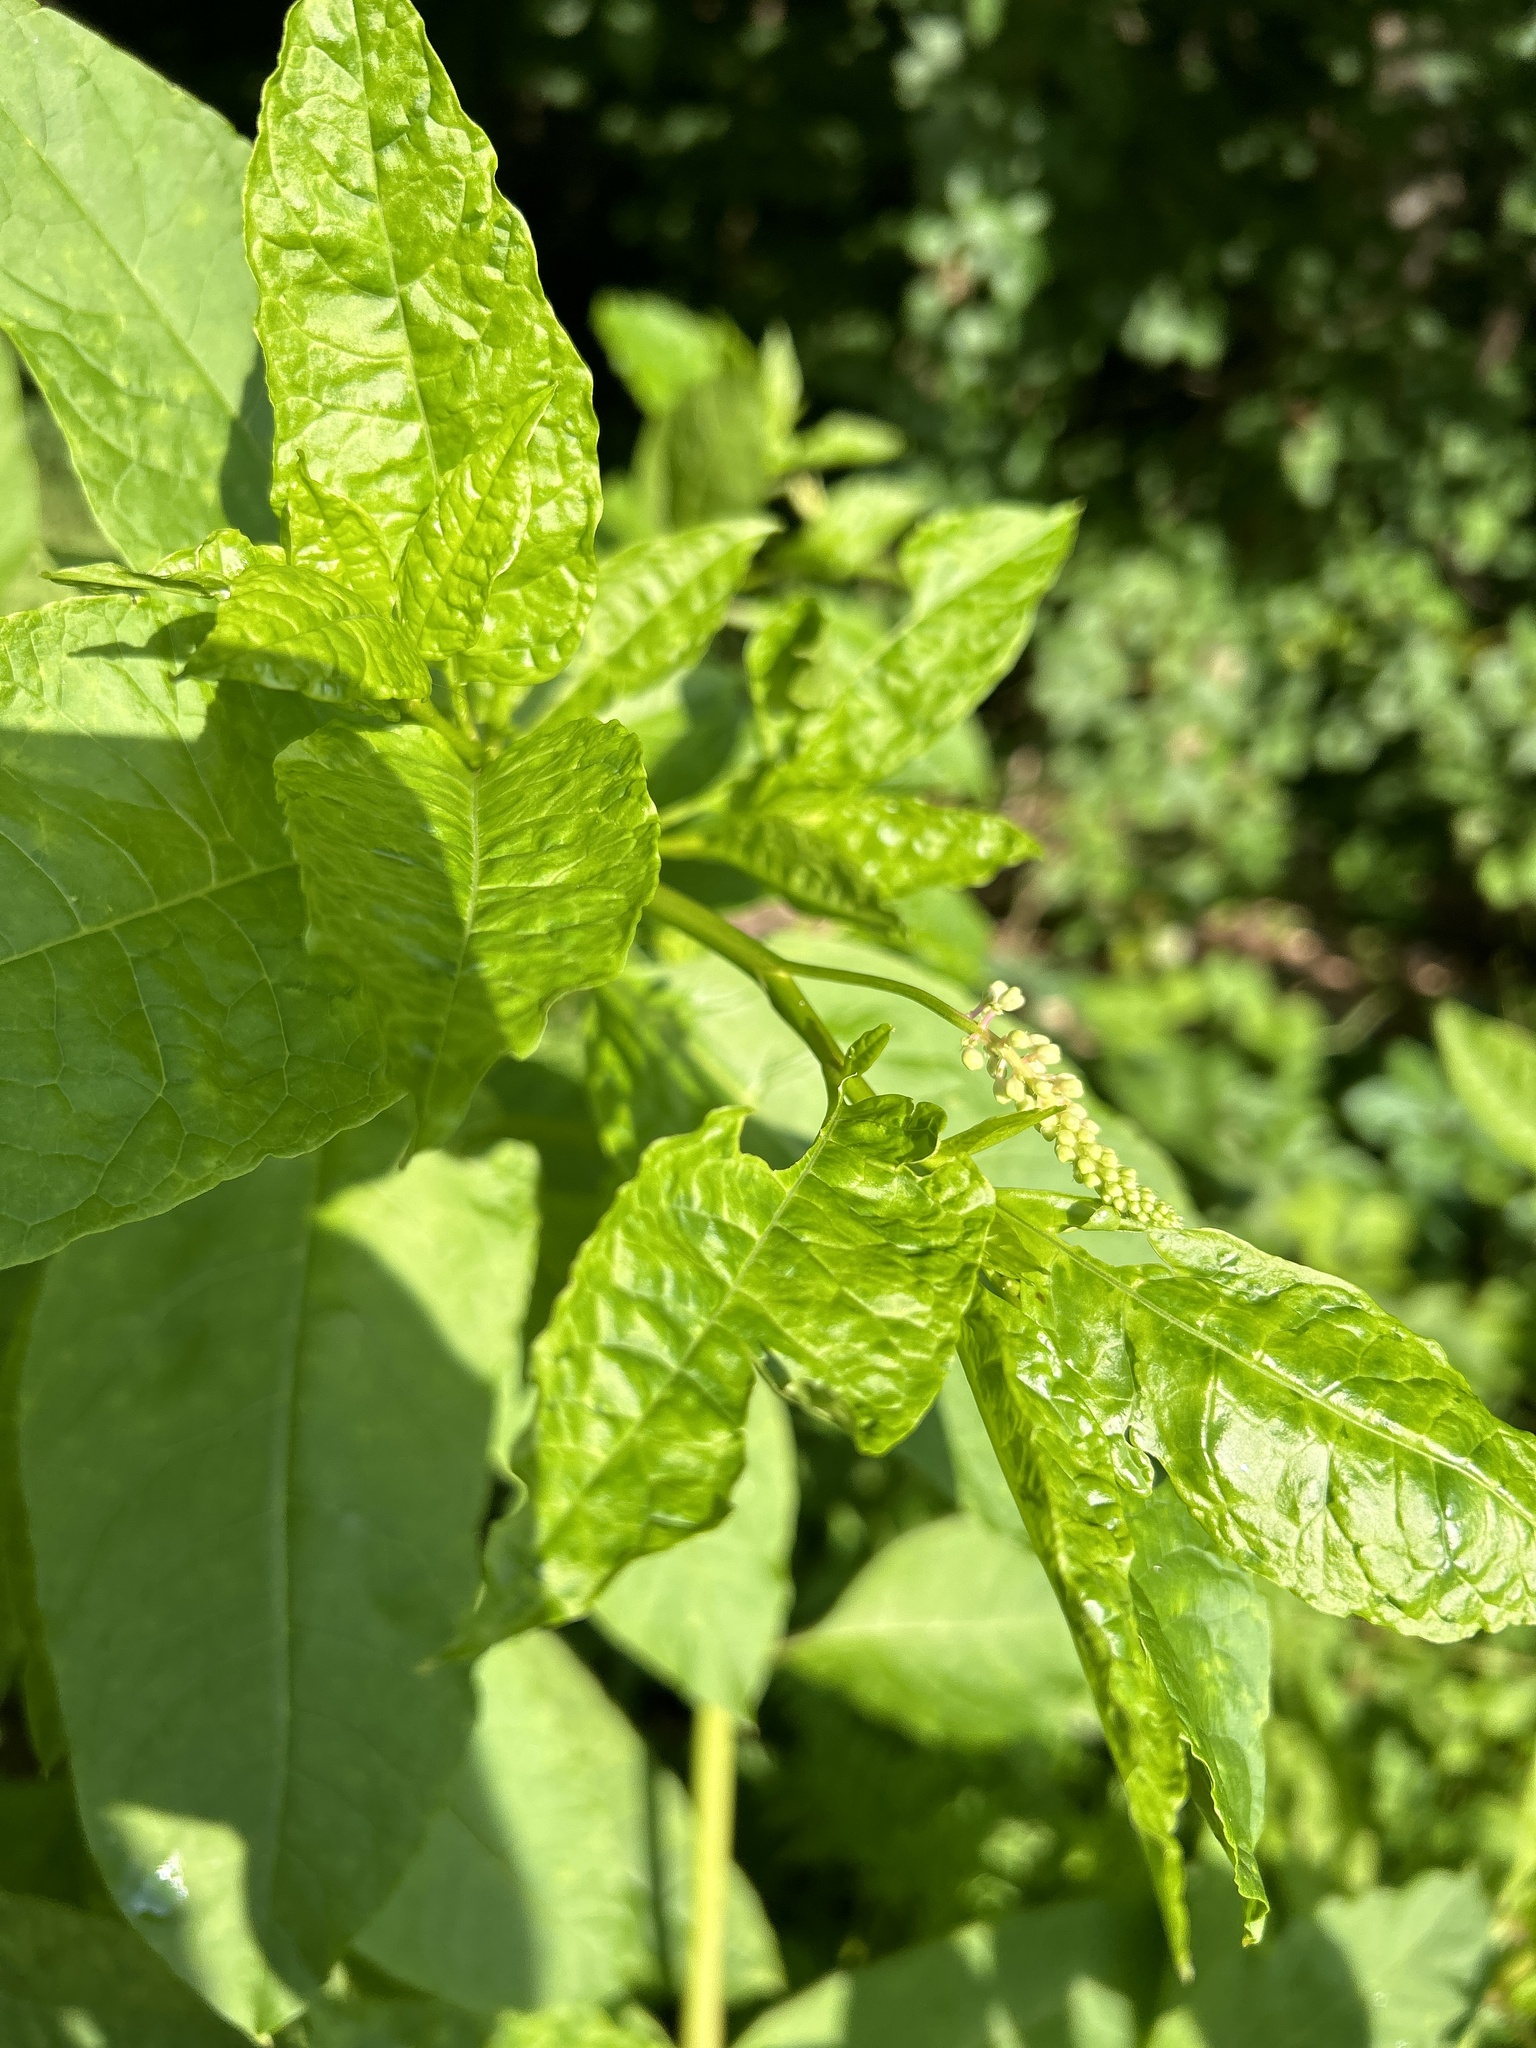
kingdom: Viruses
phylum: Pisuviricota
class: Stelpaviricetes
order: Patatavirales
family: Potyviridae
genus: Potyvirus
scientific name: Potyvirus Pokeweed mosaic virus
